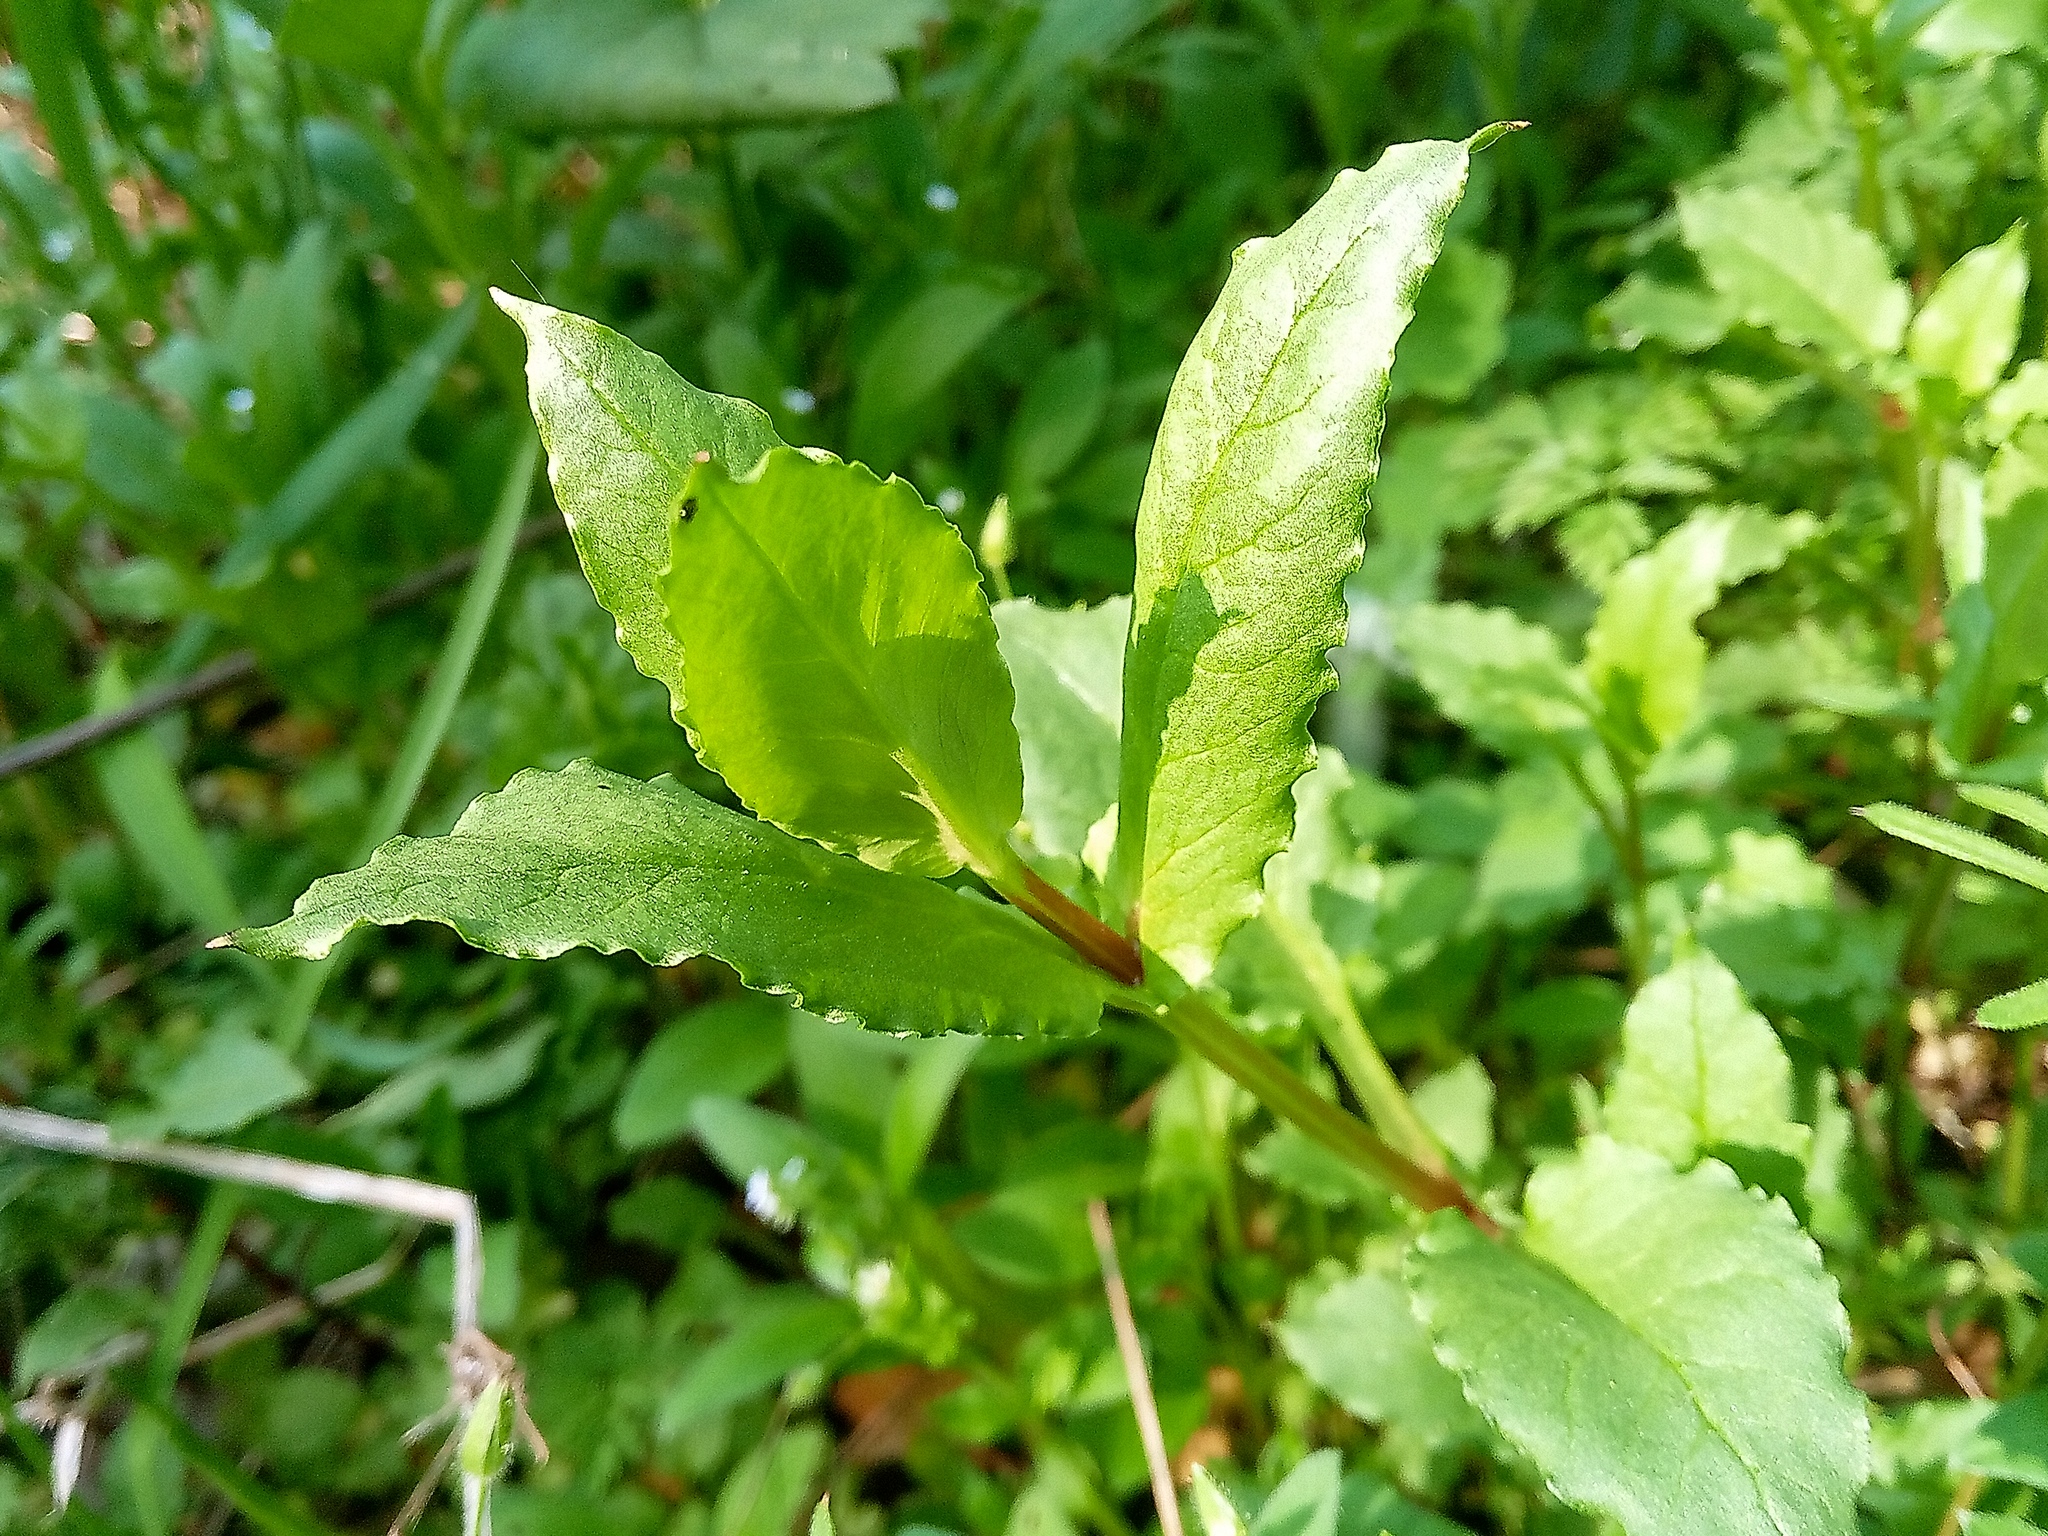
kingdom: Plantae
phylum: Tracheophyta
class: Magnoliopsida
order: Caryophyllales
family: Caryophyllaceae
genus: Stellaria
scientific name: Stellaria aquatica
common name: Water chickweed
